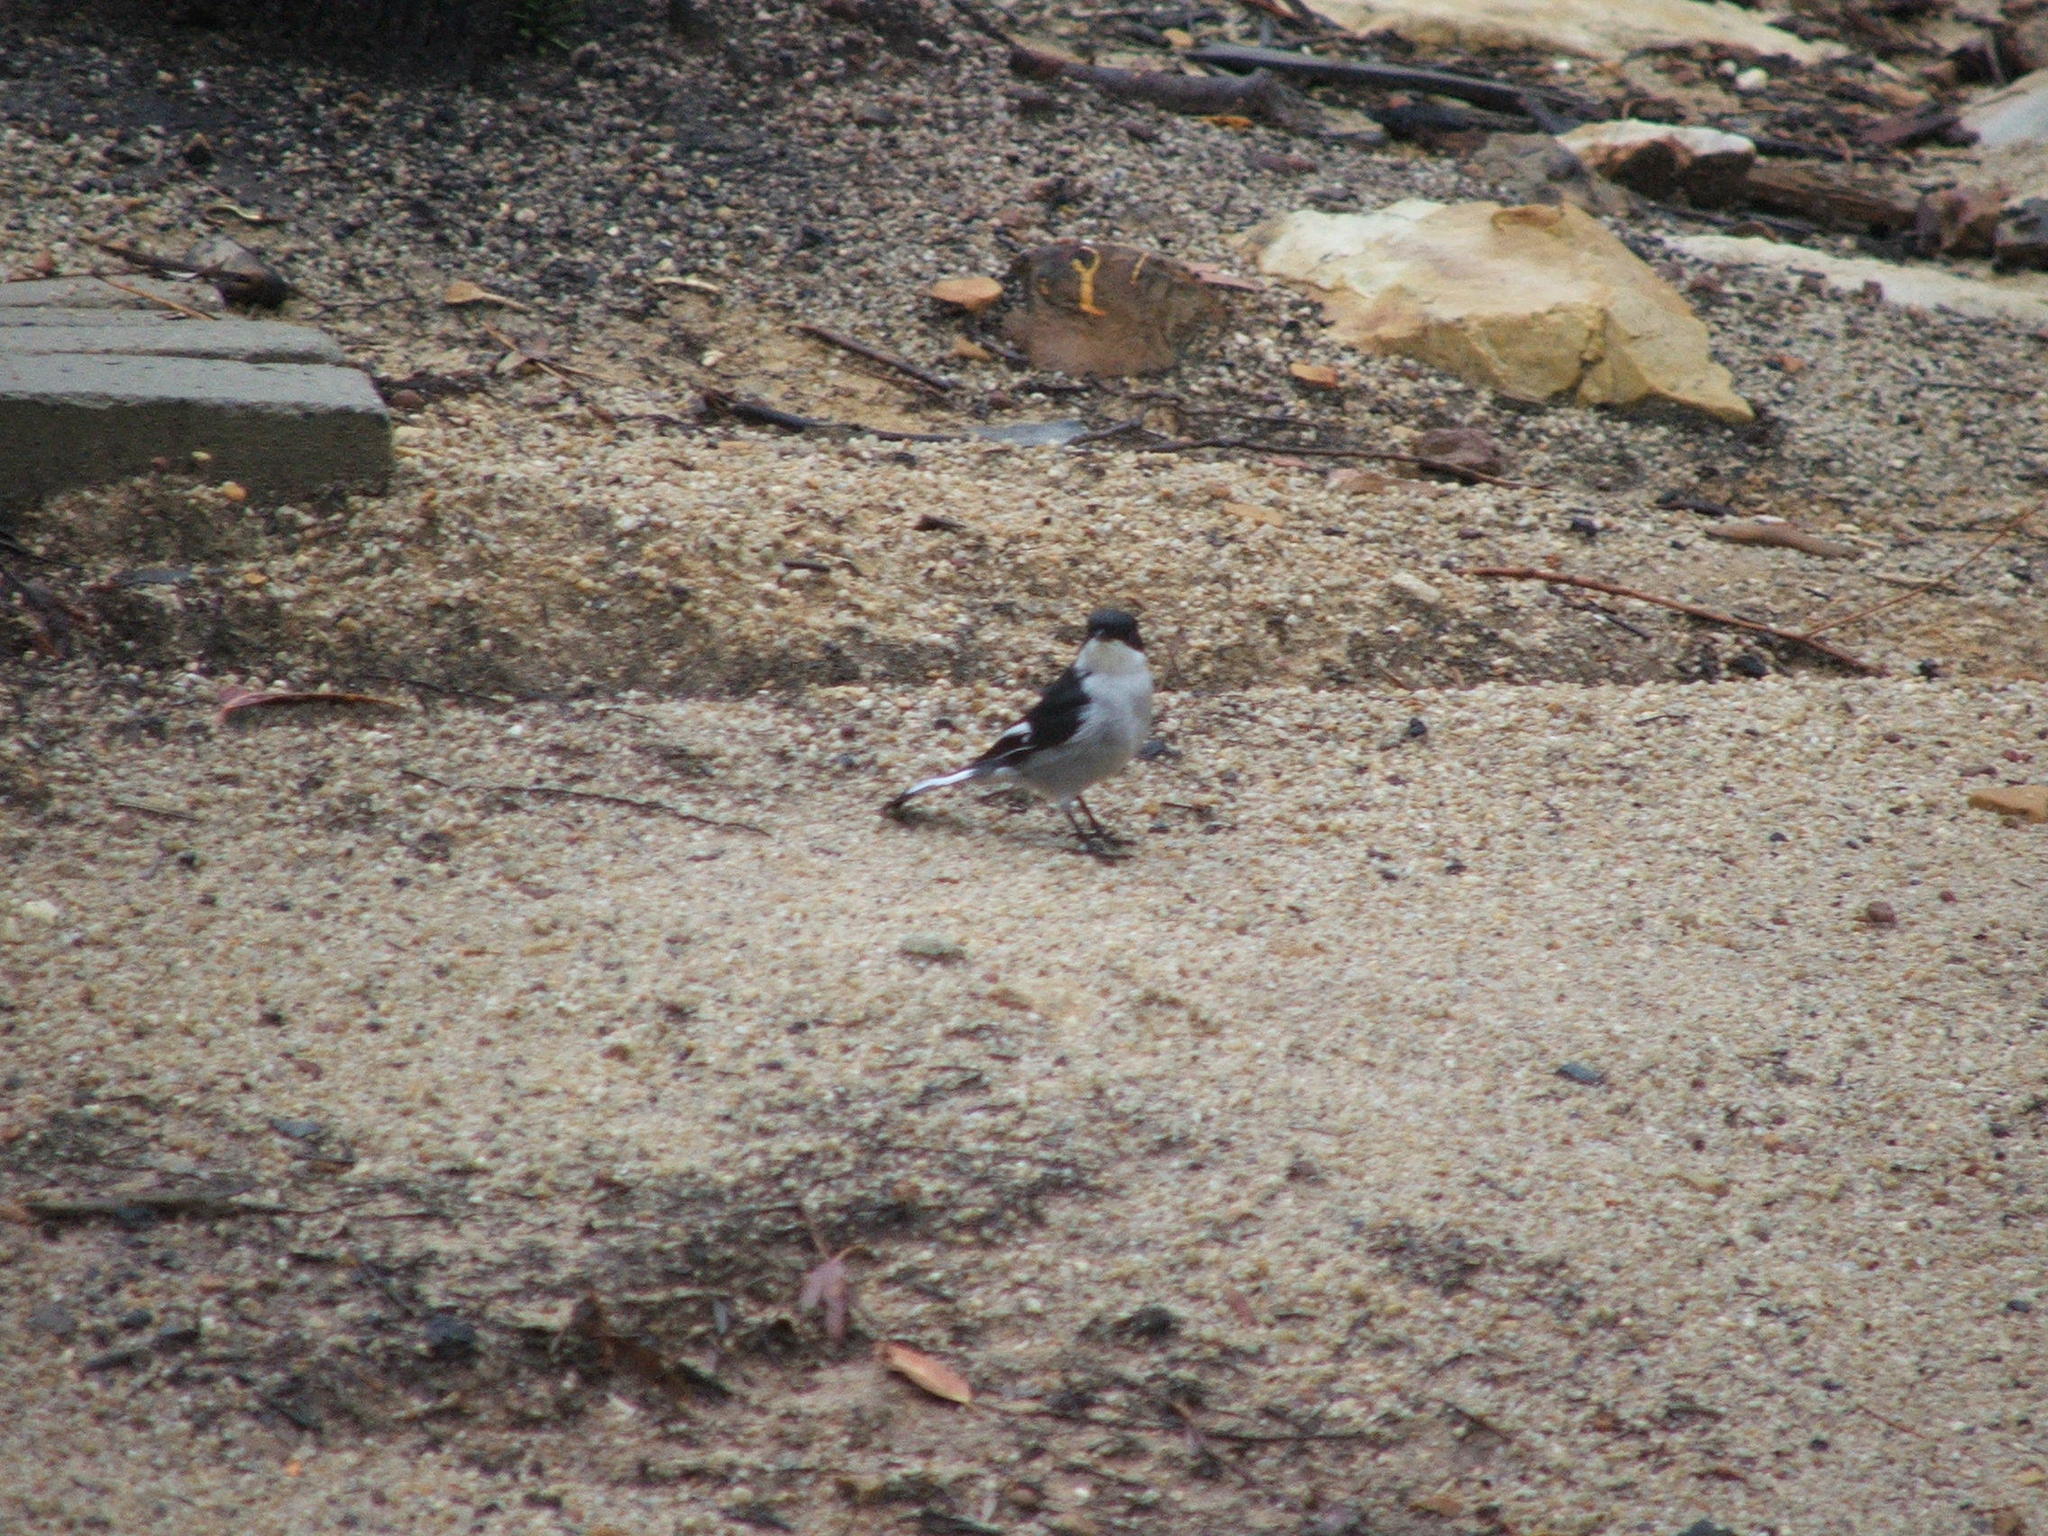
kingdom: Animalia
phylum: Chordata
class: Aves
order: Passeriformes
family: Muscicapidae
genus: Sigelus
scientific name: Sigelus silens
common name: Fiscal flycatcher
